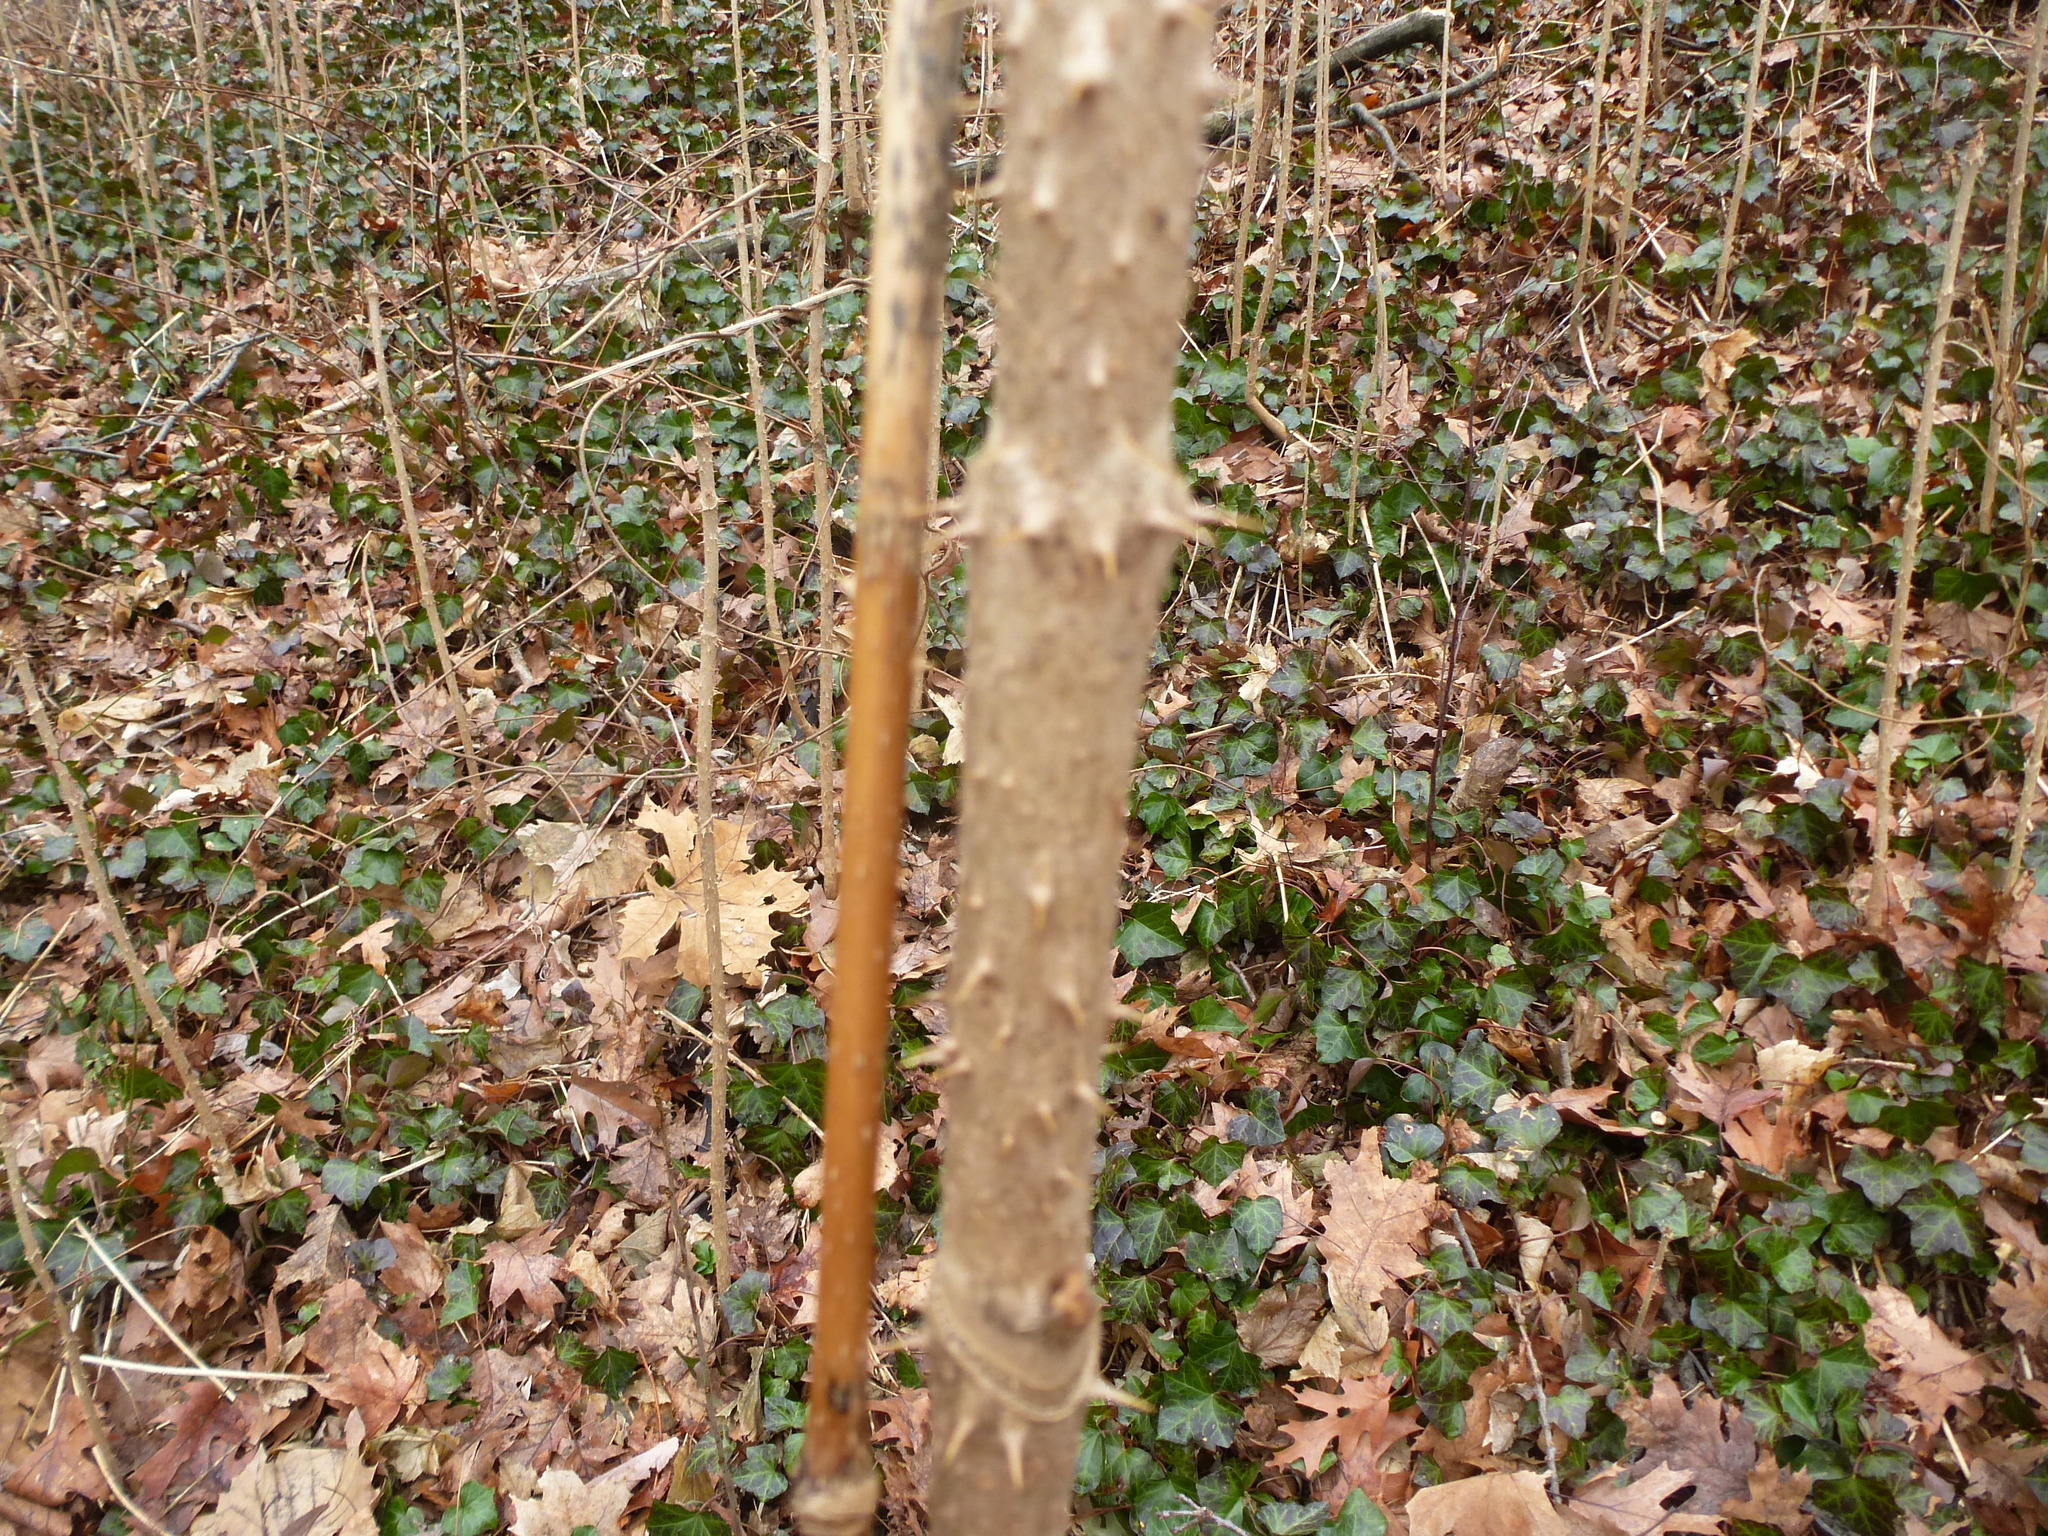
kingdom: Plantae
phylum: Tracheophyta
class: Magnoliopsida
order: Apiales
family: Araliaceae
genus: Aralia
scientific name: Aralia elata
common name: Japanese angelica-tree
